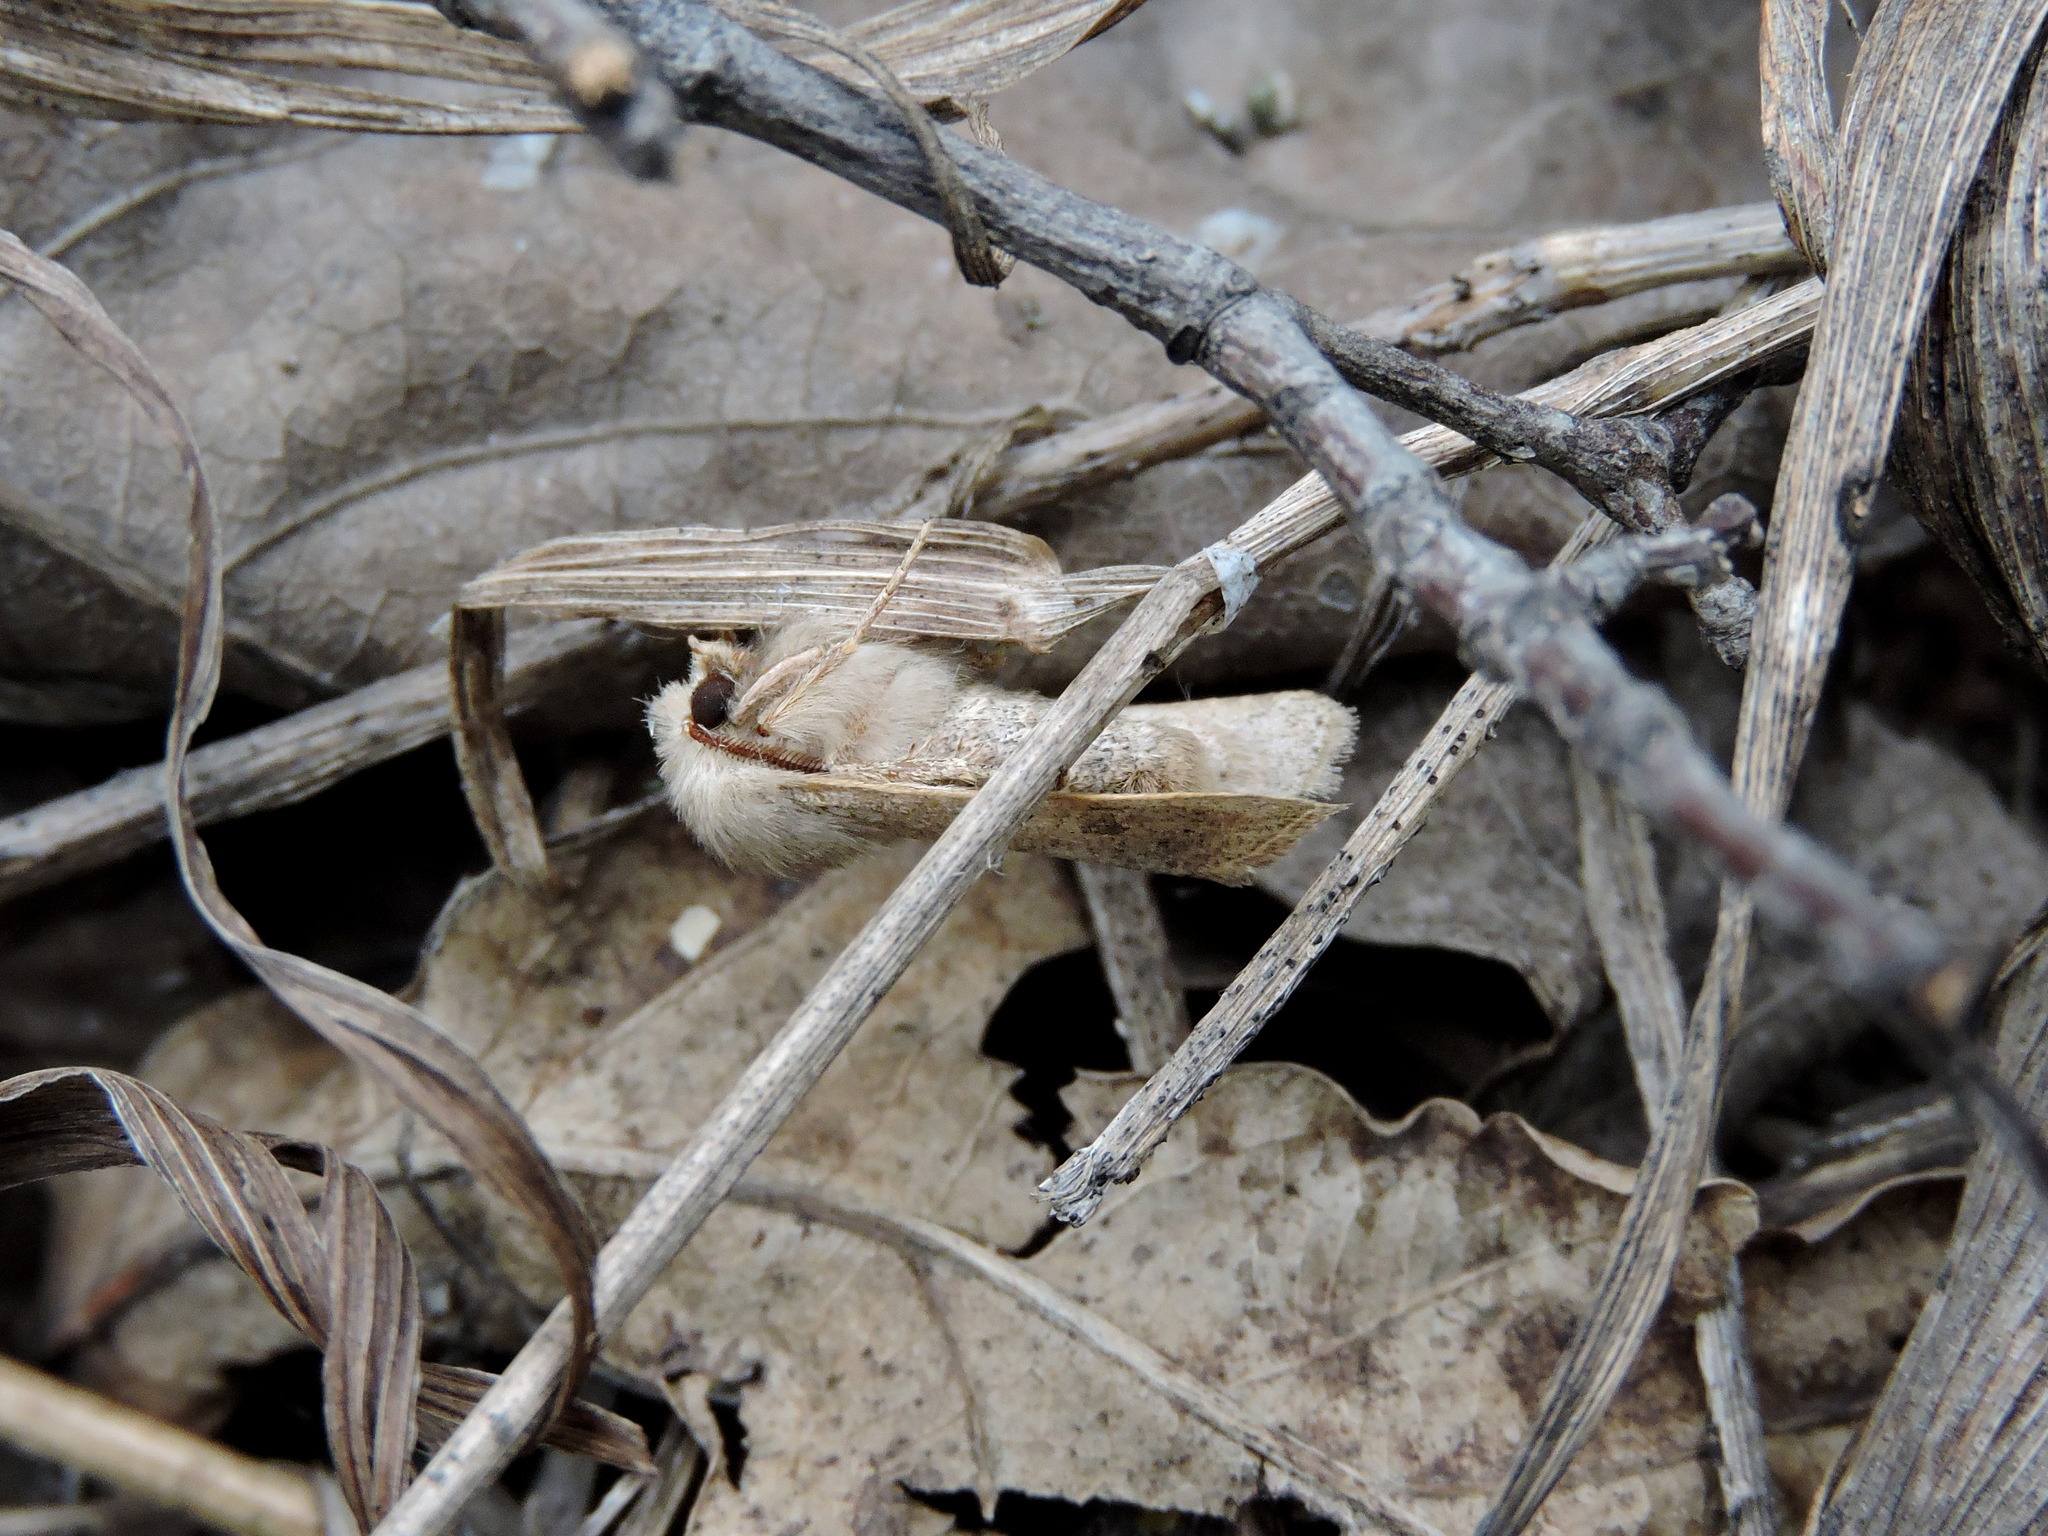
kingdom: Animalia
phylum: Arthropoda
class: Insecta
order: Lepidoptera
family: Noctuidae
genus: Orthosia
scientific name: Orthosia cruda
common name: Small quaker
